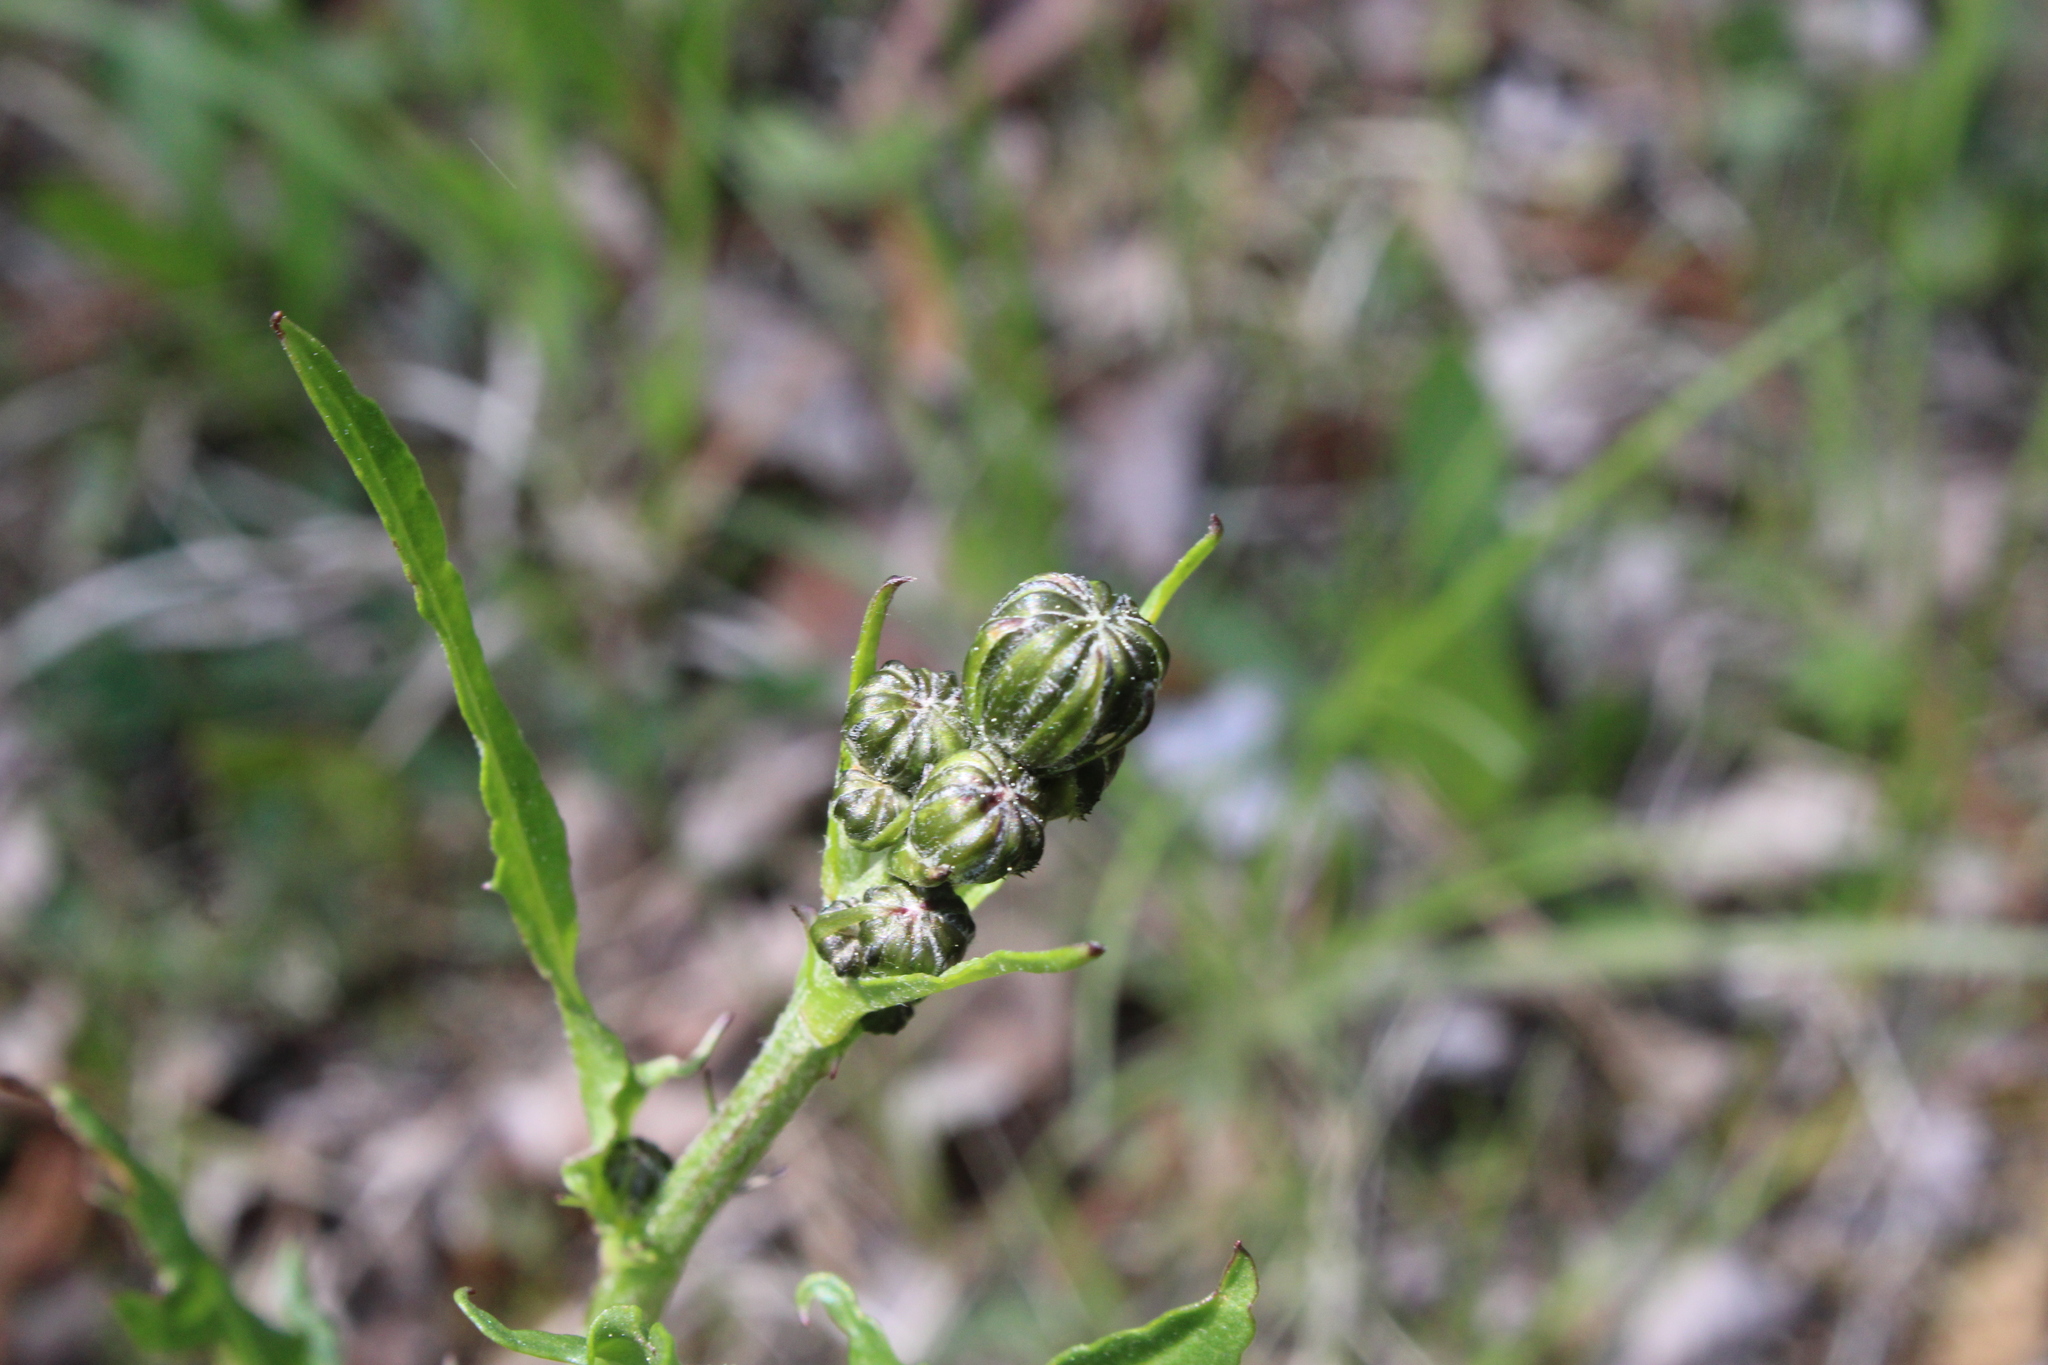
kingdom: Plantae
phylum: Tracheophyta
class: Magnoliopsida
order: Asterales
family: Asteraceae
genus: Crepis
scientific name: Crepis biennis
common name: Rough hawk's-beard
